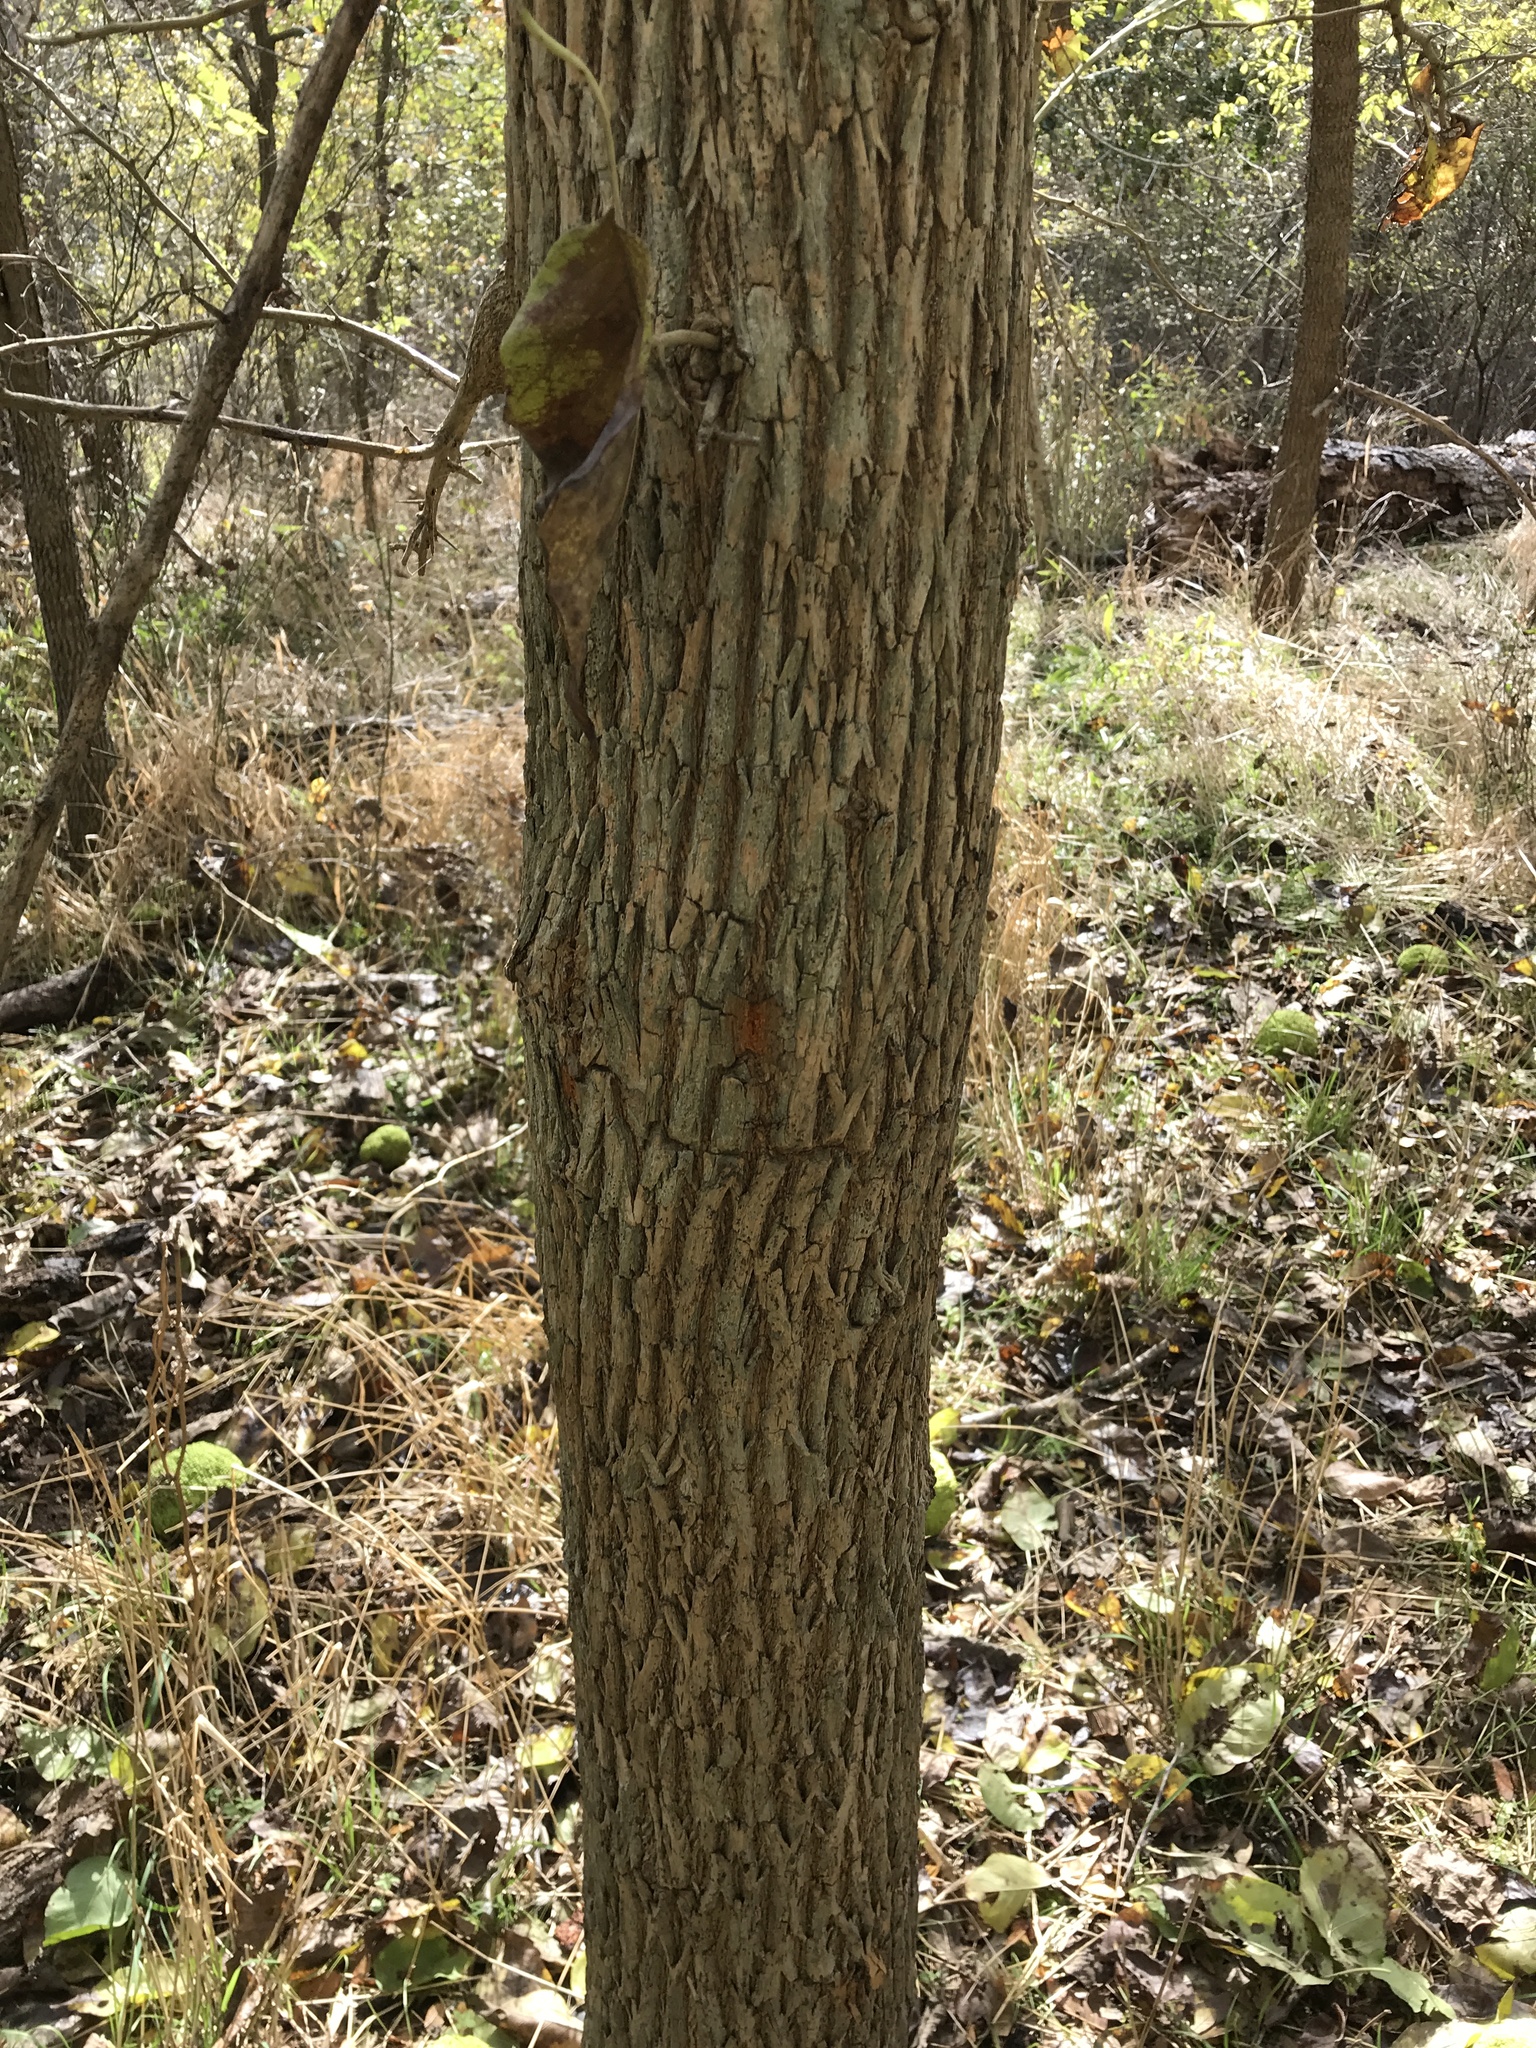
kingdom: Plantae
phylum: Tracheophyta
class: Magnoliopsida
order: Rosales
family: Moraceae
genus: Maclura
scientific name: Maclura pomifera
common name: Osage-orange
